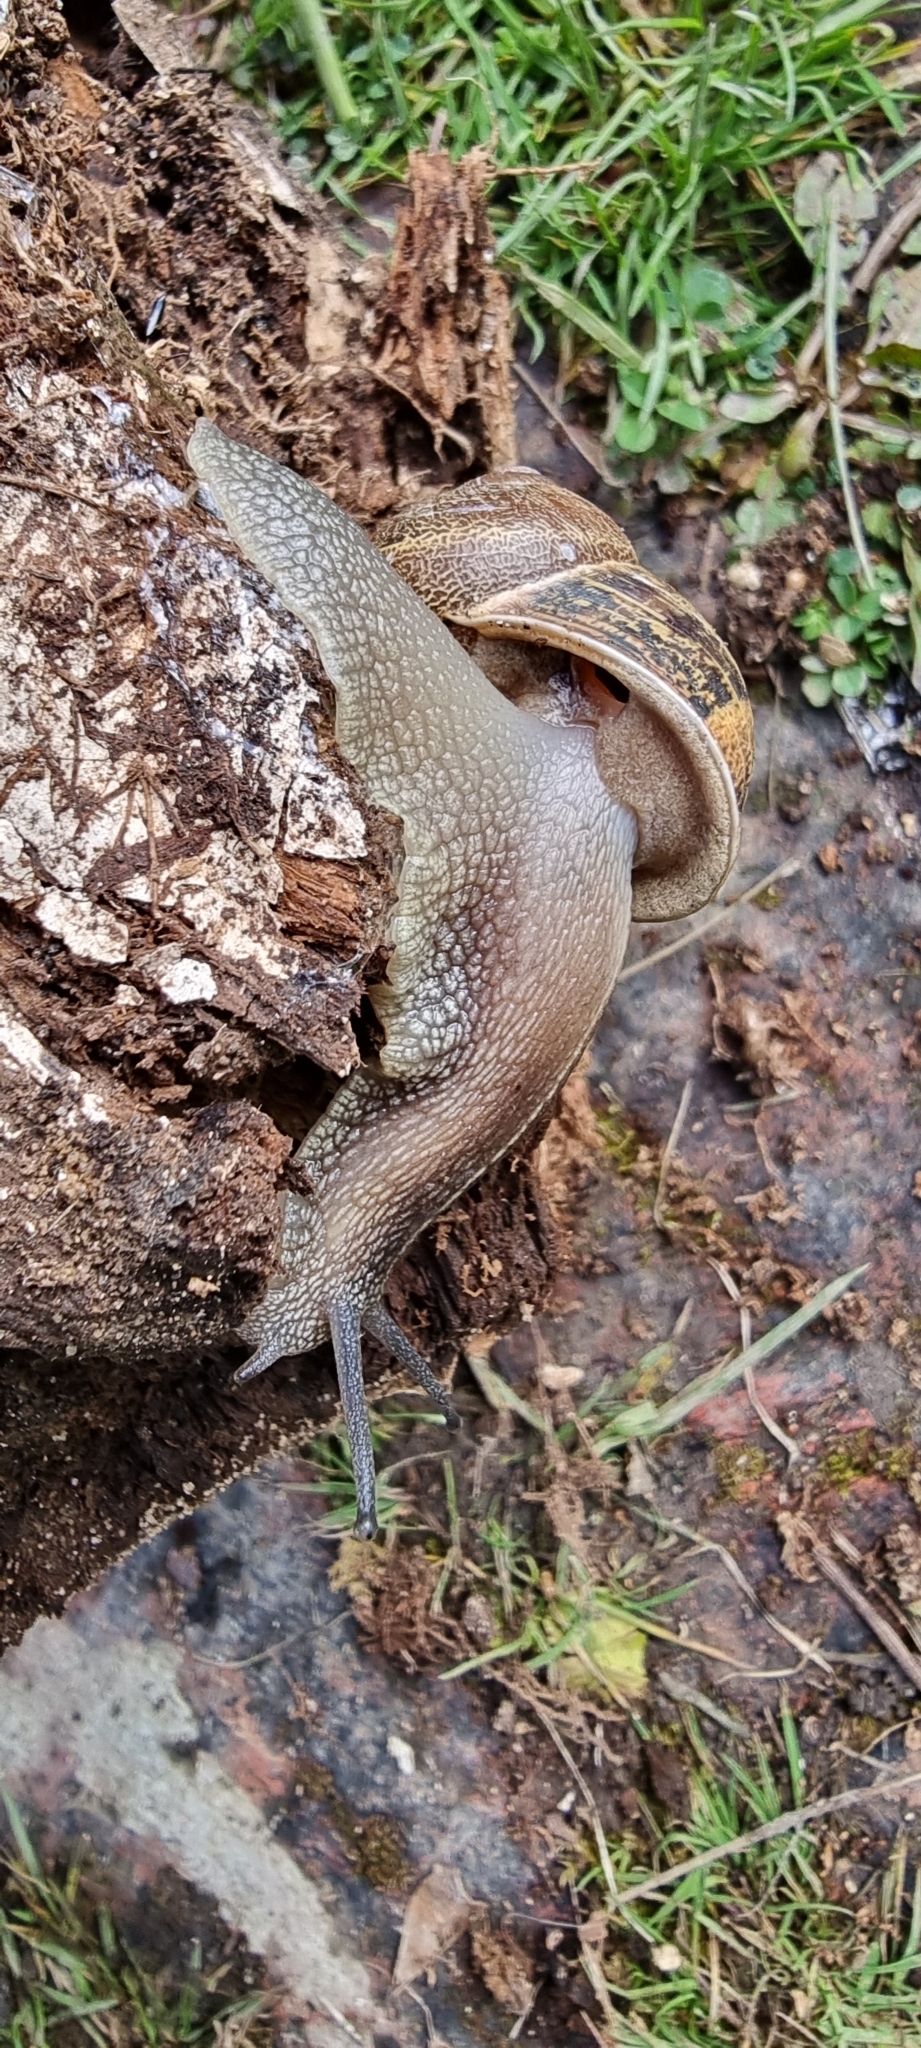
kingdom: Animalia
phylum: Mollusca
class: Gastropoda
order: Stylommatophora
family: Helicidae
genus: Cornu
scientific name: Cornu aspersum
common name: Brown garden snail
